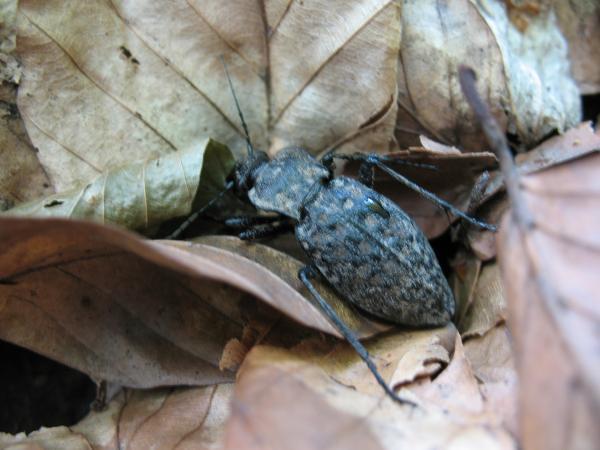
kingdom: Animalia
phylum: Arthropoda
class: Insecta
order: Coleoptera
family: Carabidae
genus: Carabus
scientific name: Carabus variolosus
